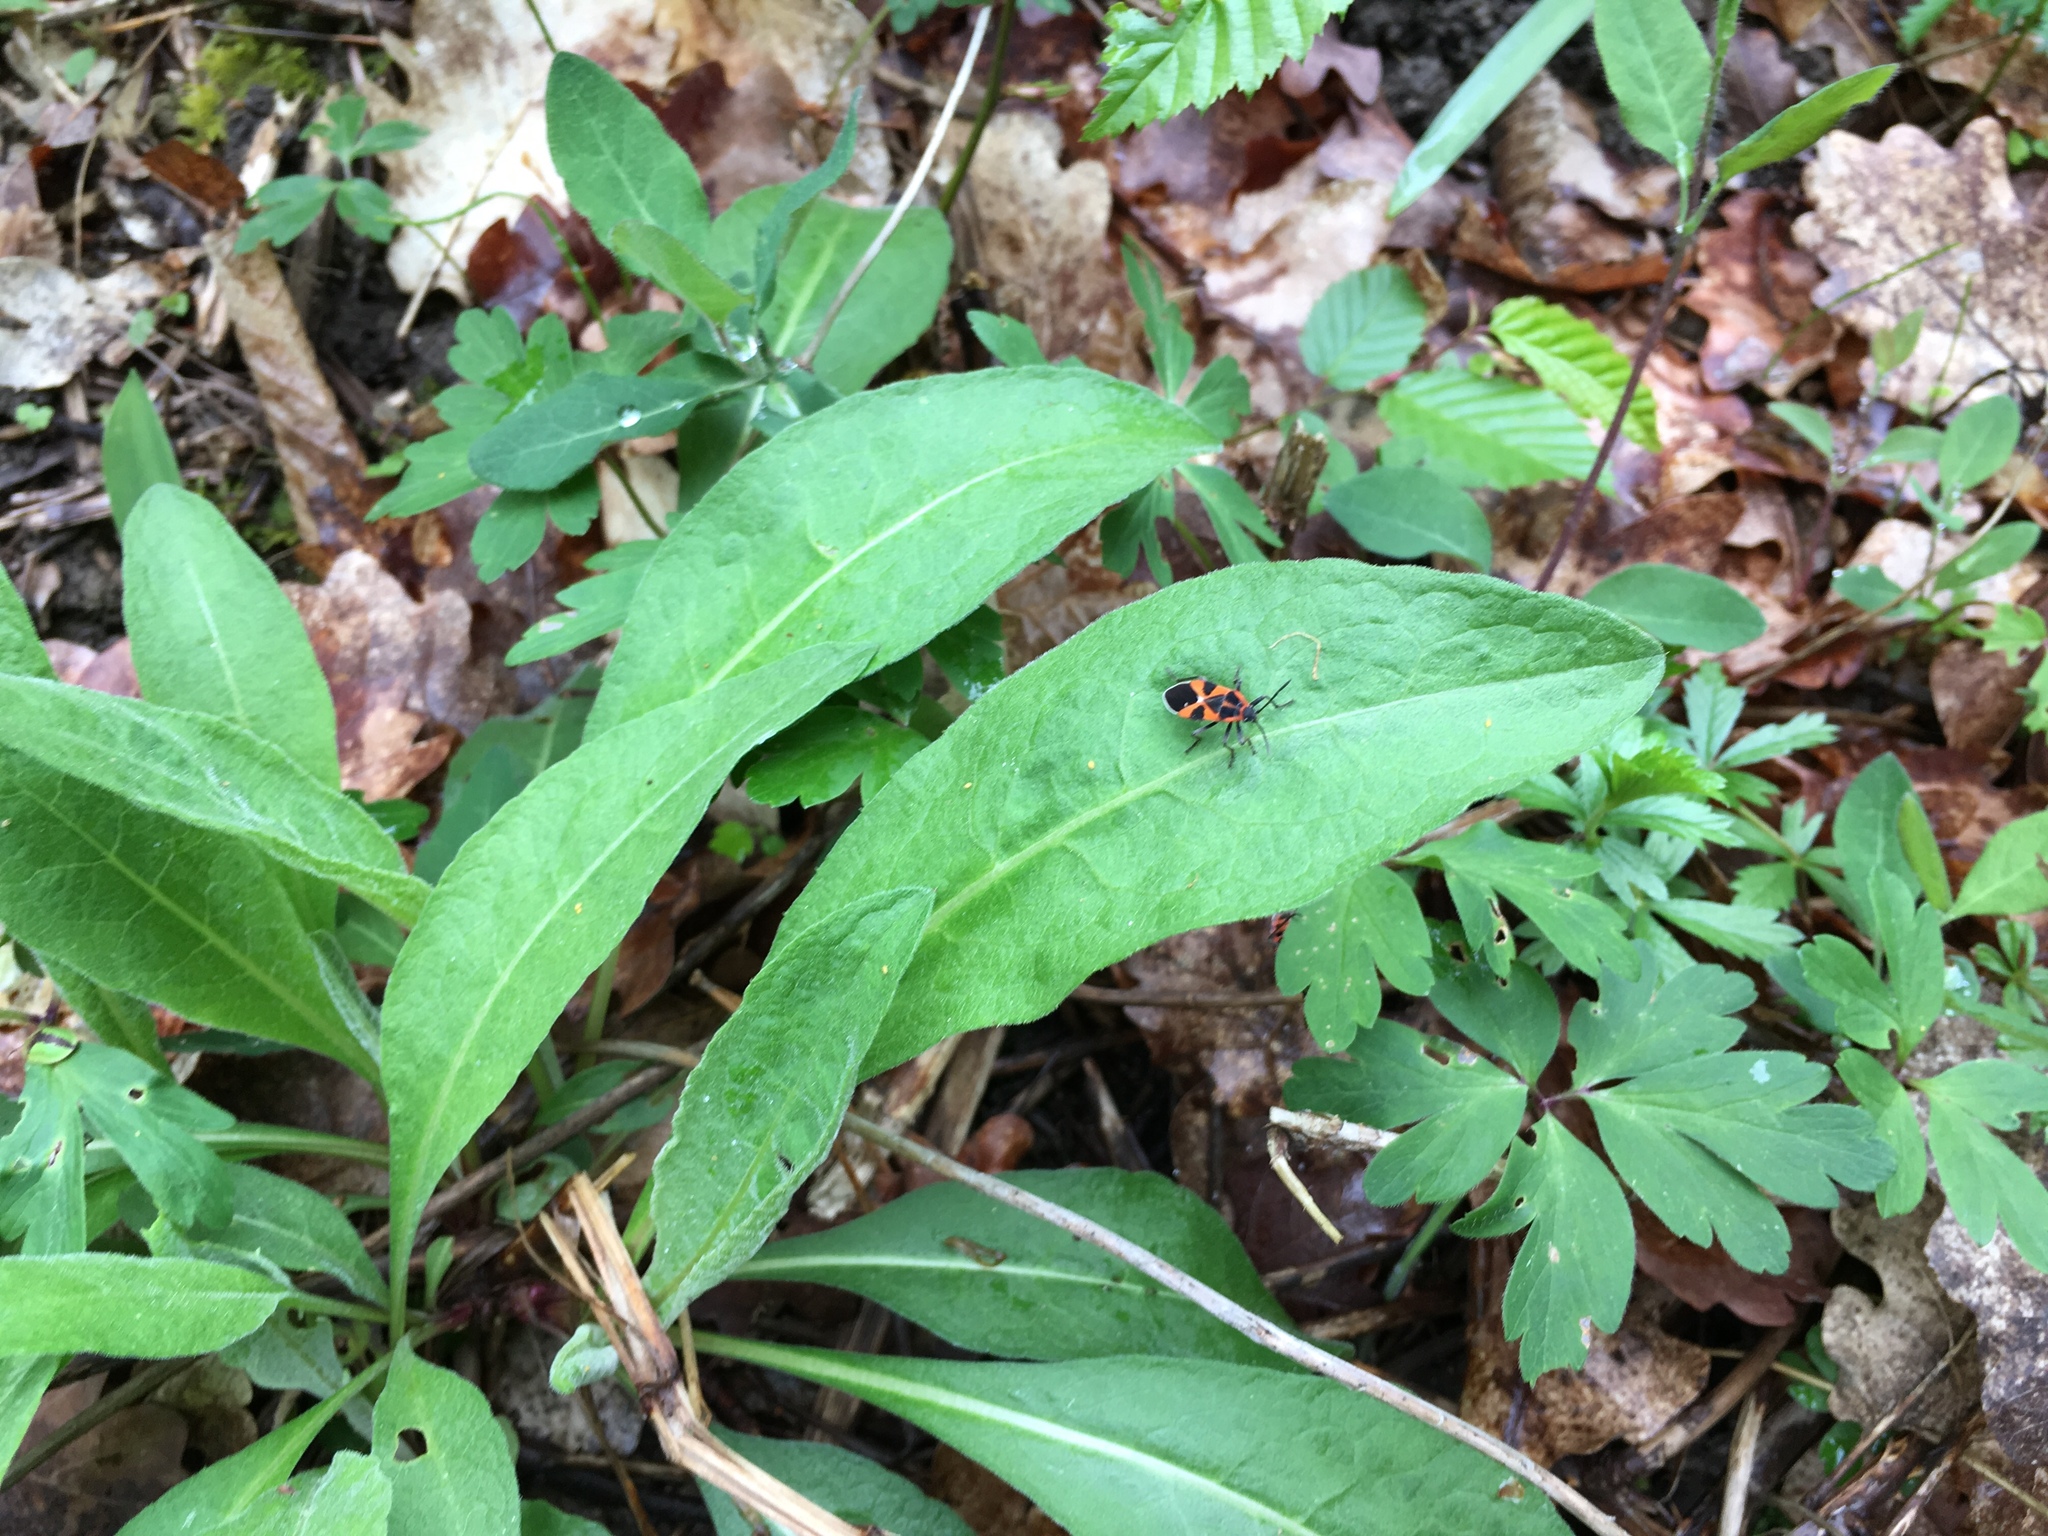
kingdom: Animalia
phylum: Arthropoda
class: Insecta
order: Hemiptera
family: Lygaeidae
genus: Tropidothorax
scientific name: Tropidothorax leucopterus
